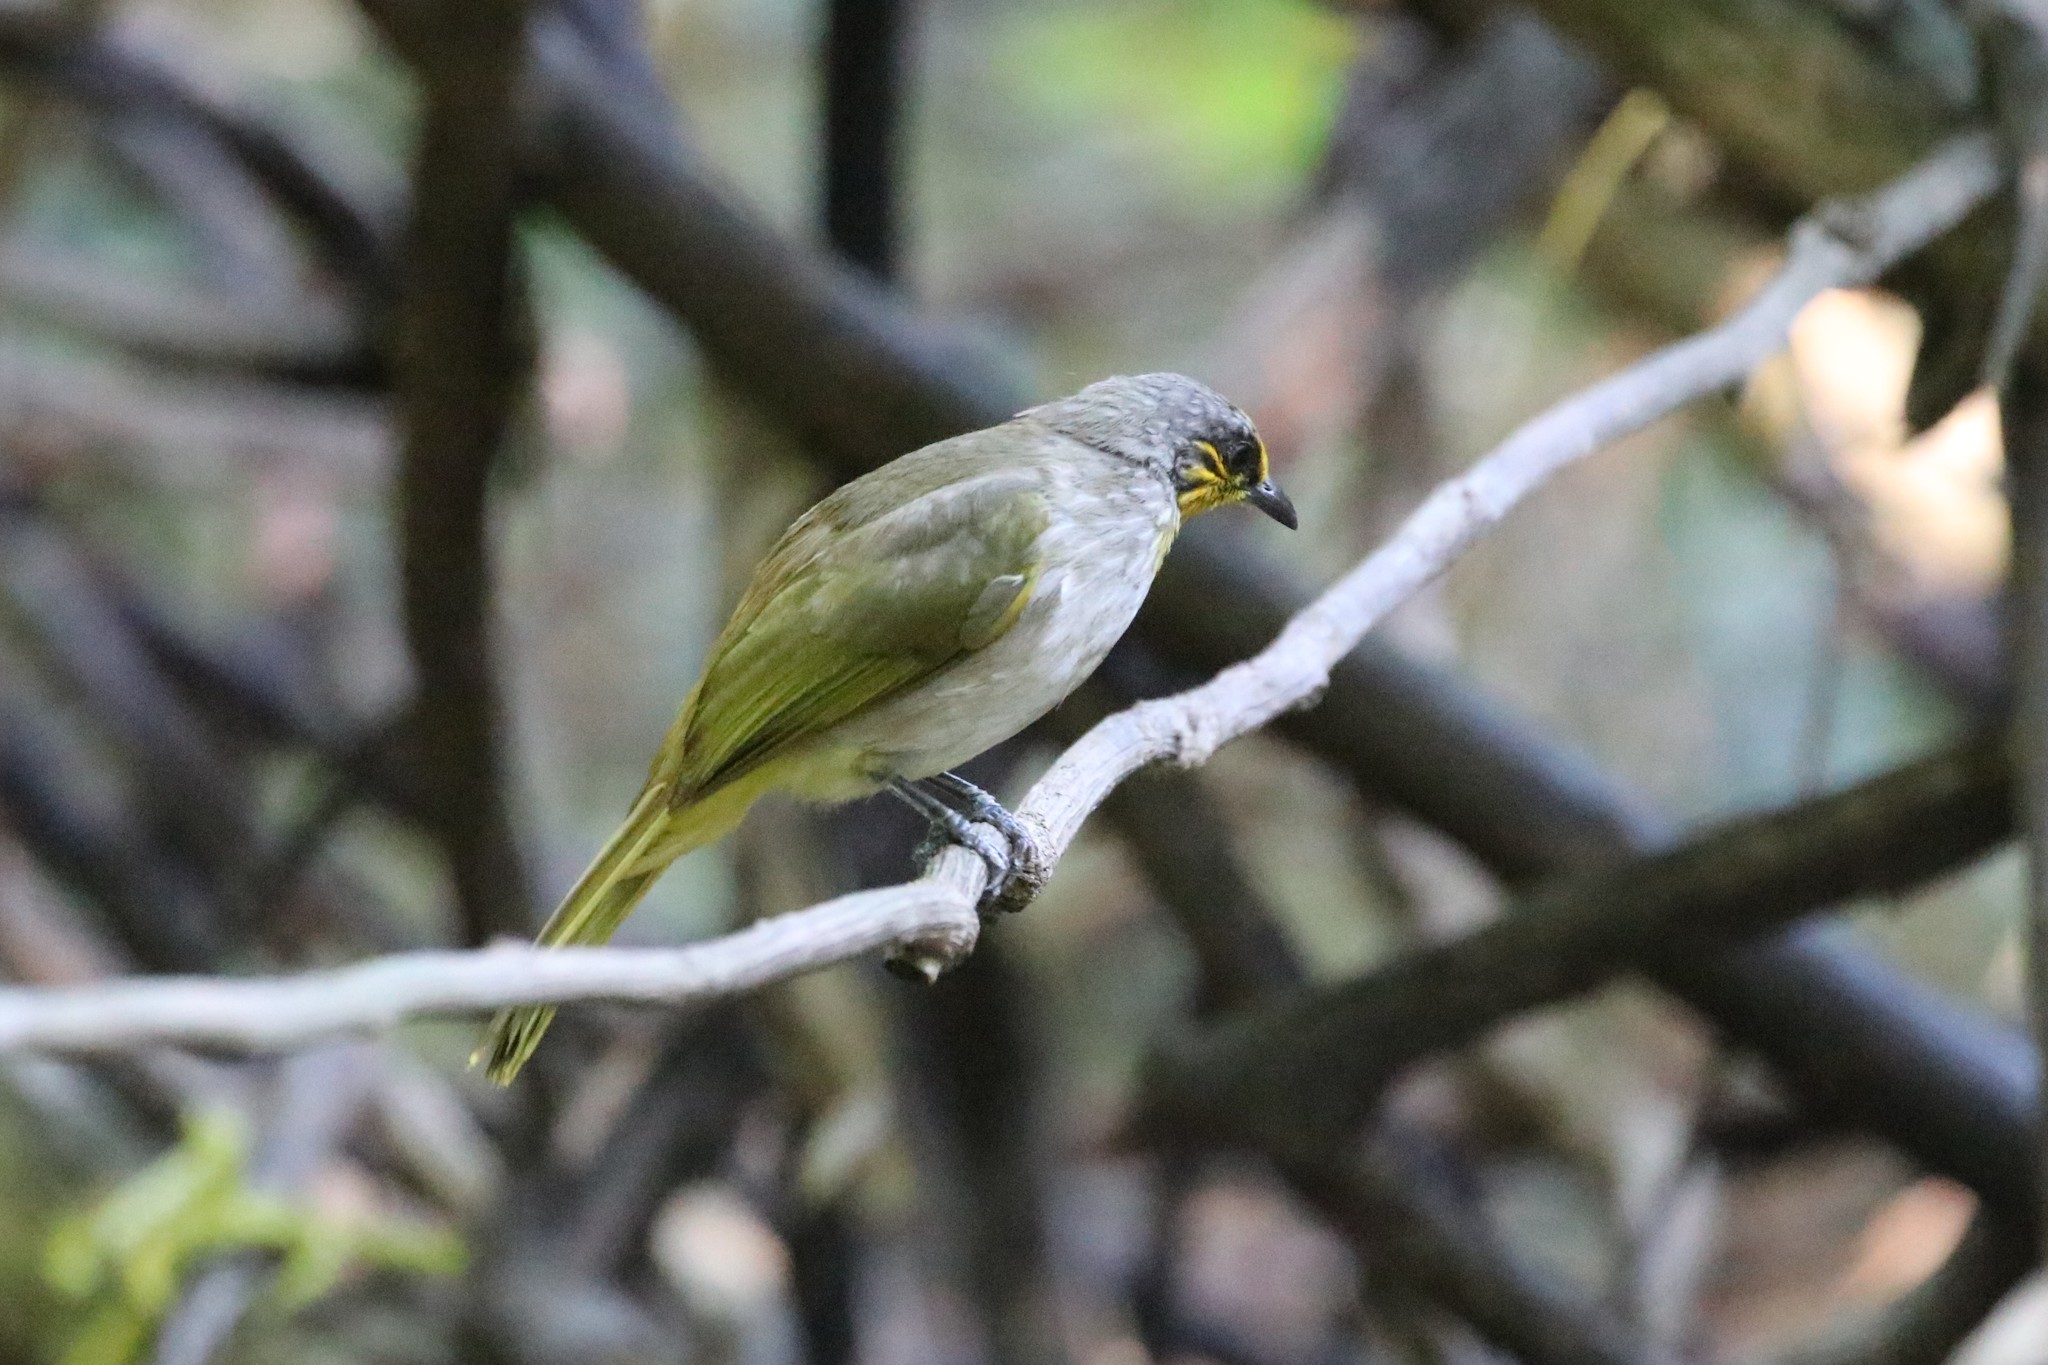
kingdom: Animalia
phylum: Chordata
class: Aves
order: Passeriformes
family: Pycnonotidae
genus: Pycnonotus
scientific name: Pycnonotus finlaysoni
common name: Stripe-throated bulbul
